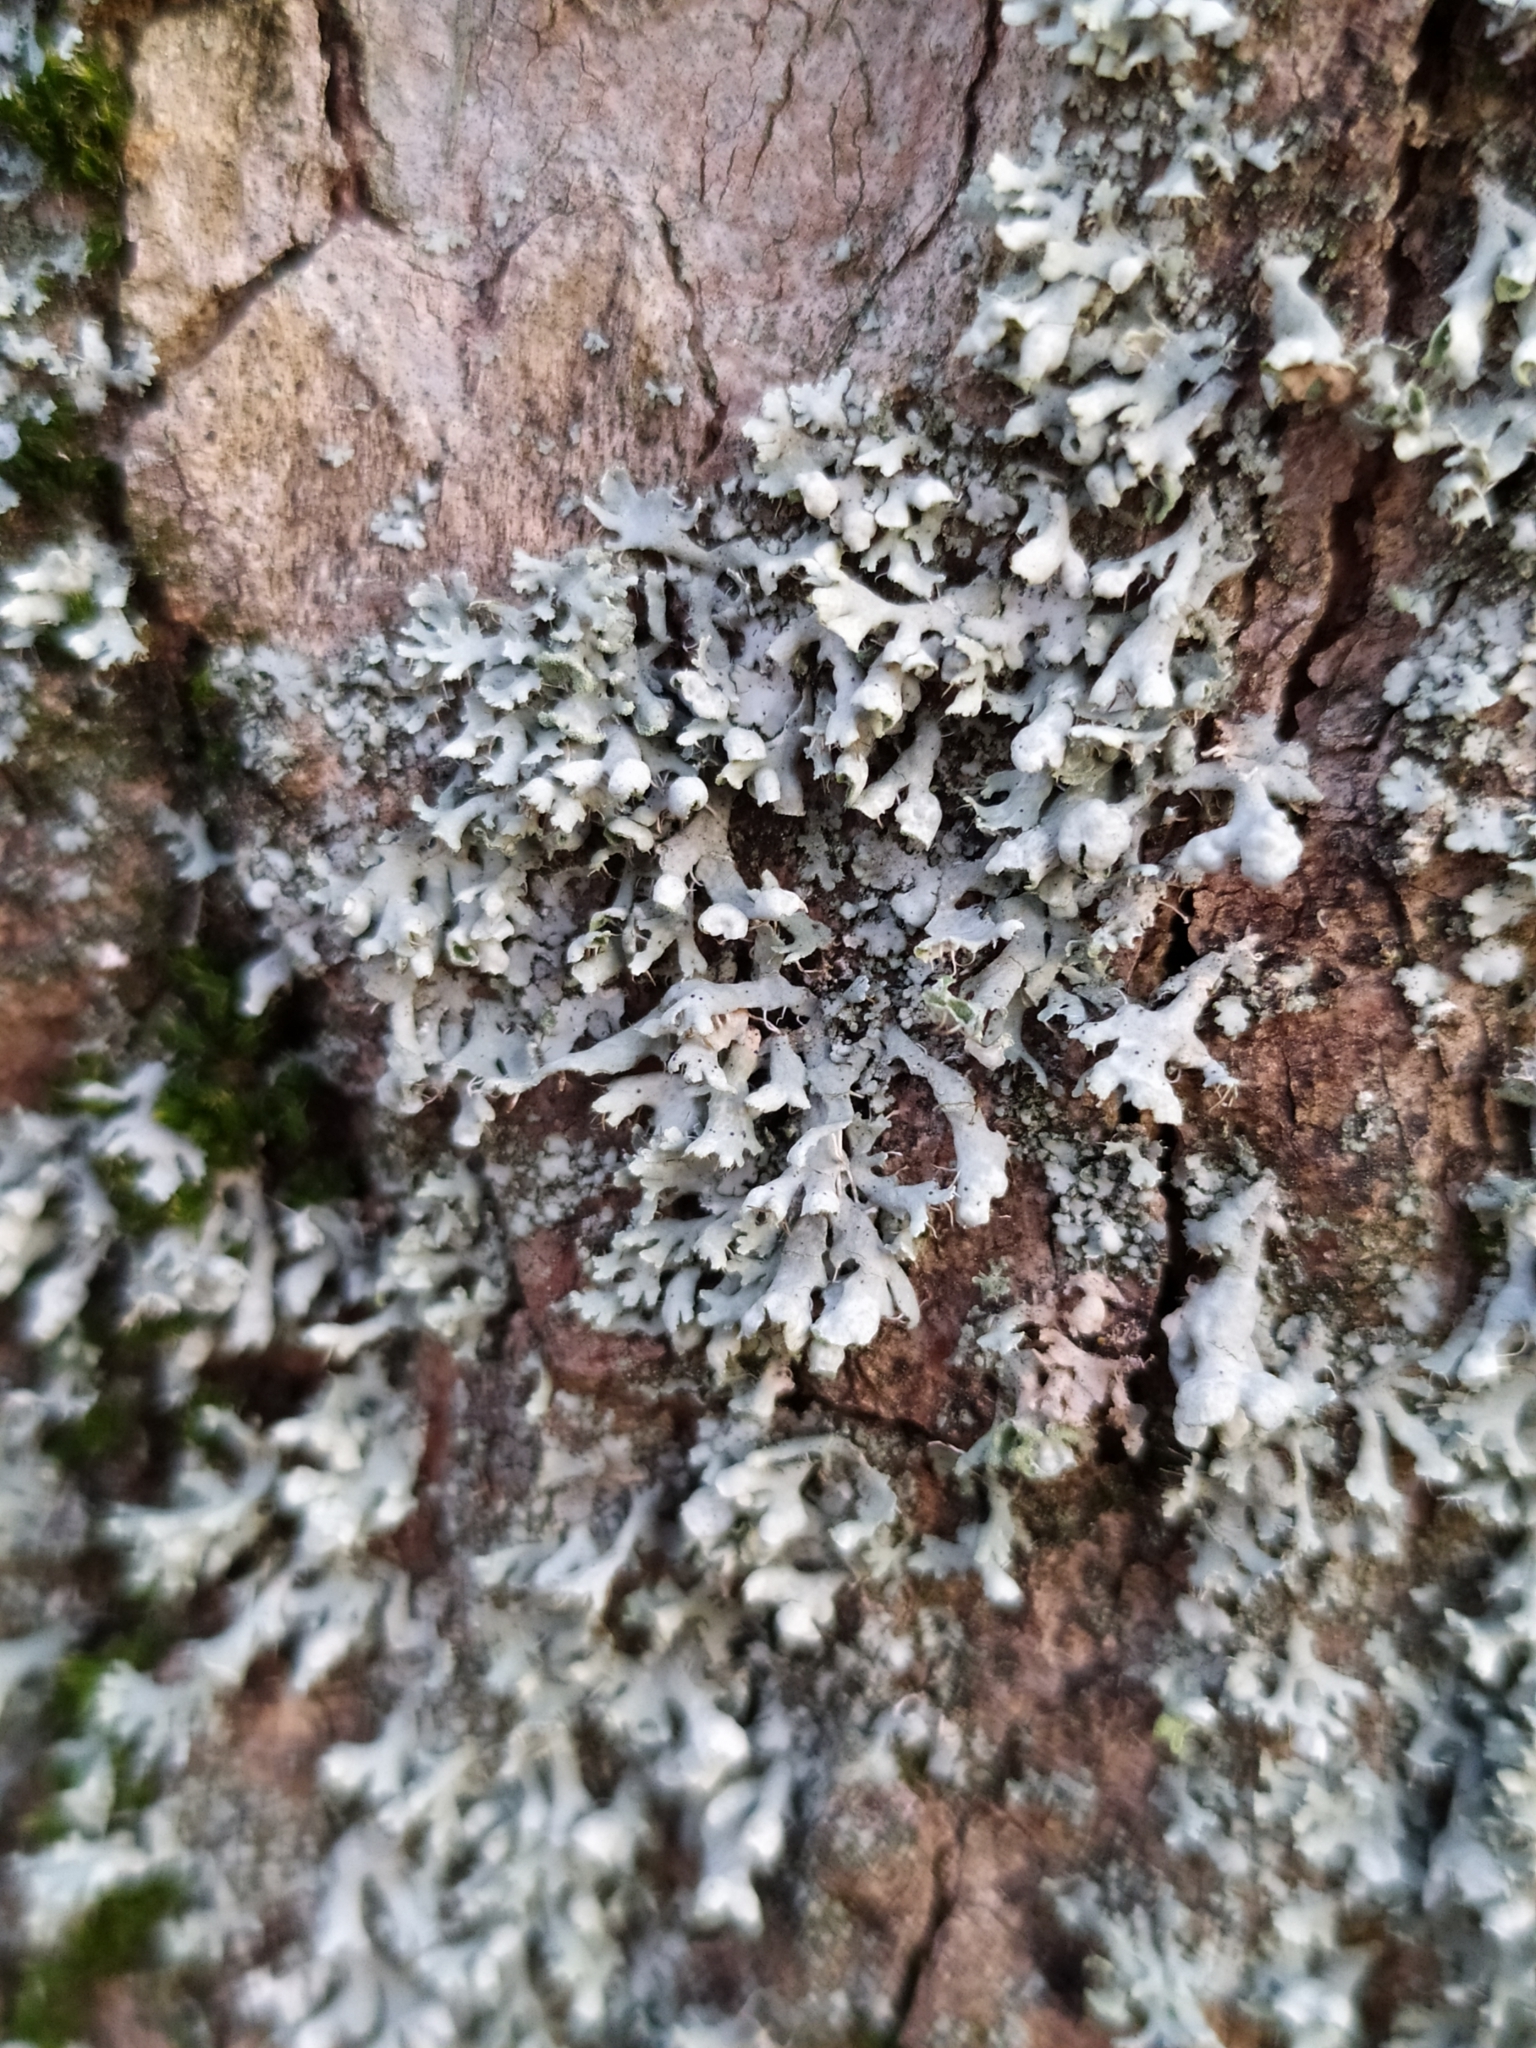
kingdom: Fungi
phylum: Ascomycota
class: Lecanoromycetes
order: Caliciales
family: Physciaceae
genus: Physcia
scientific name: Physcia adscendens
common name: Hooded rosette lichen
